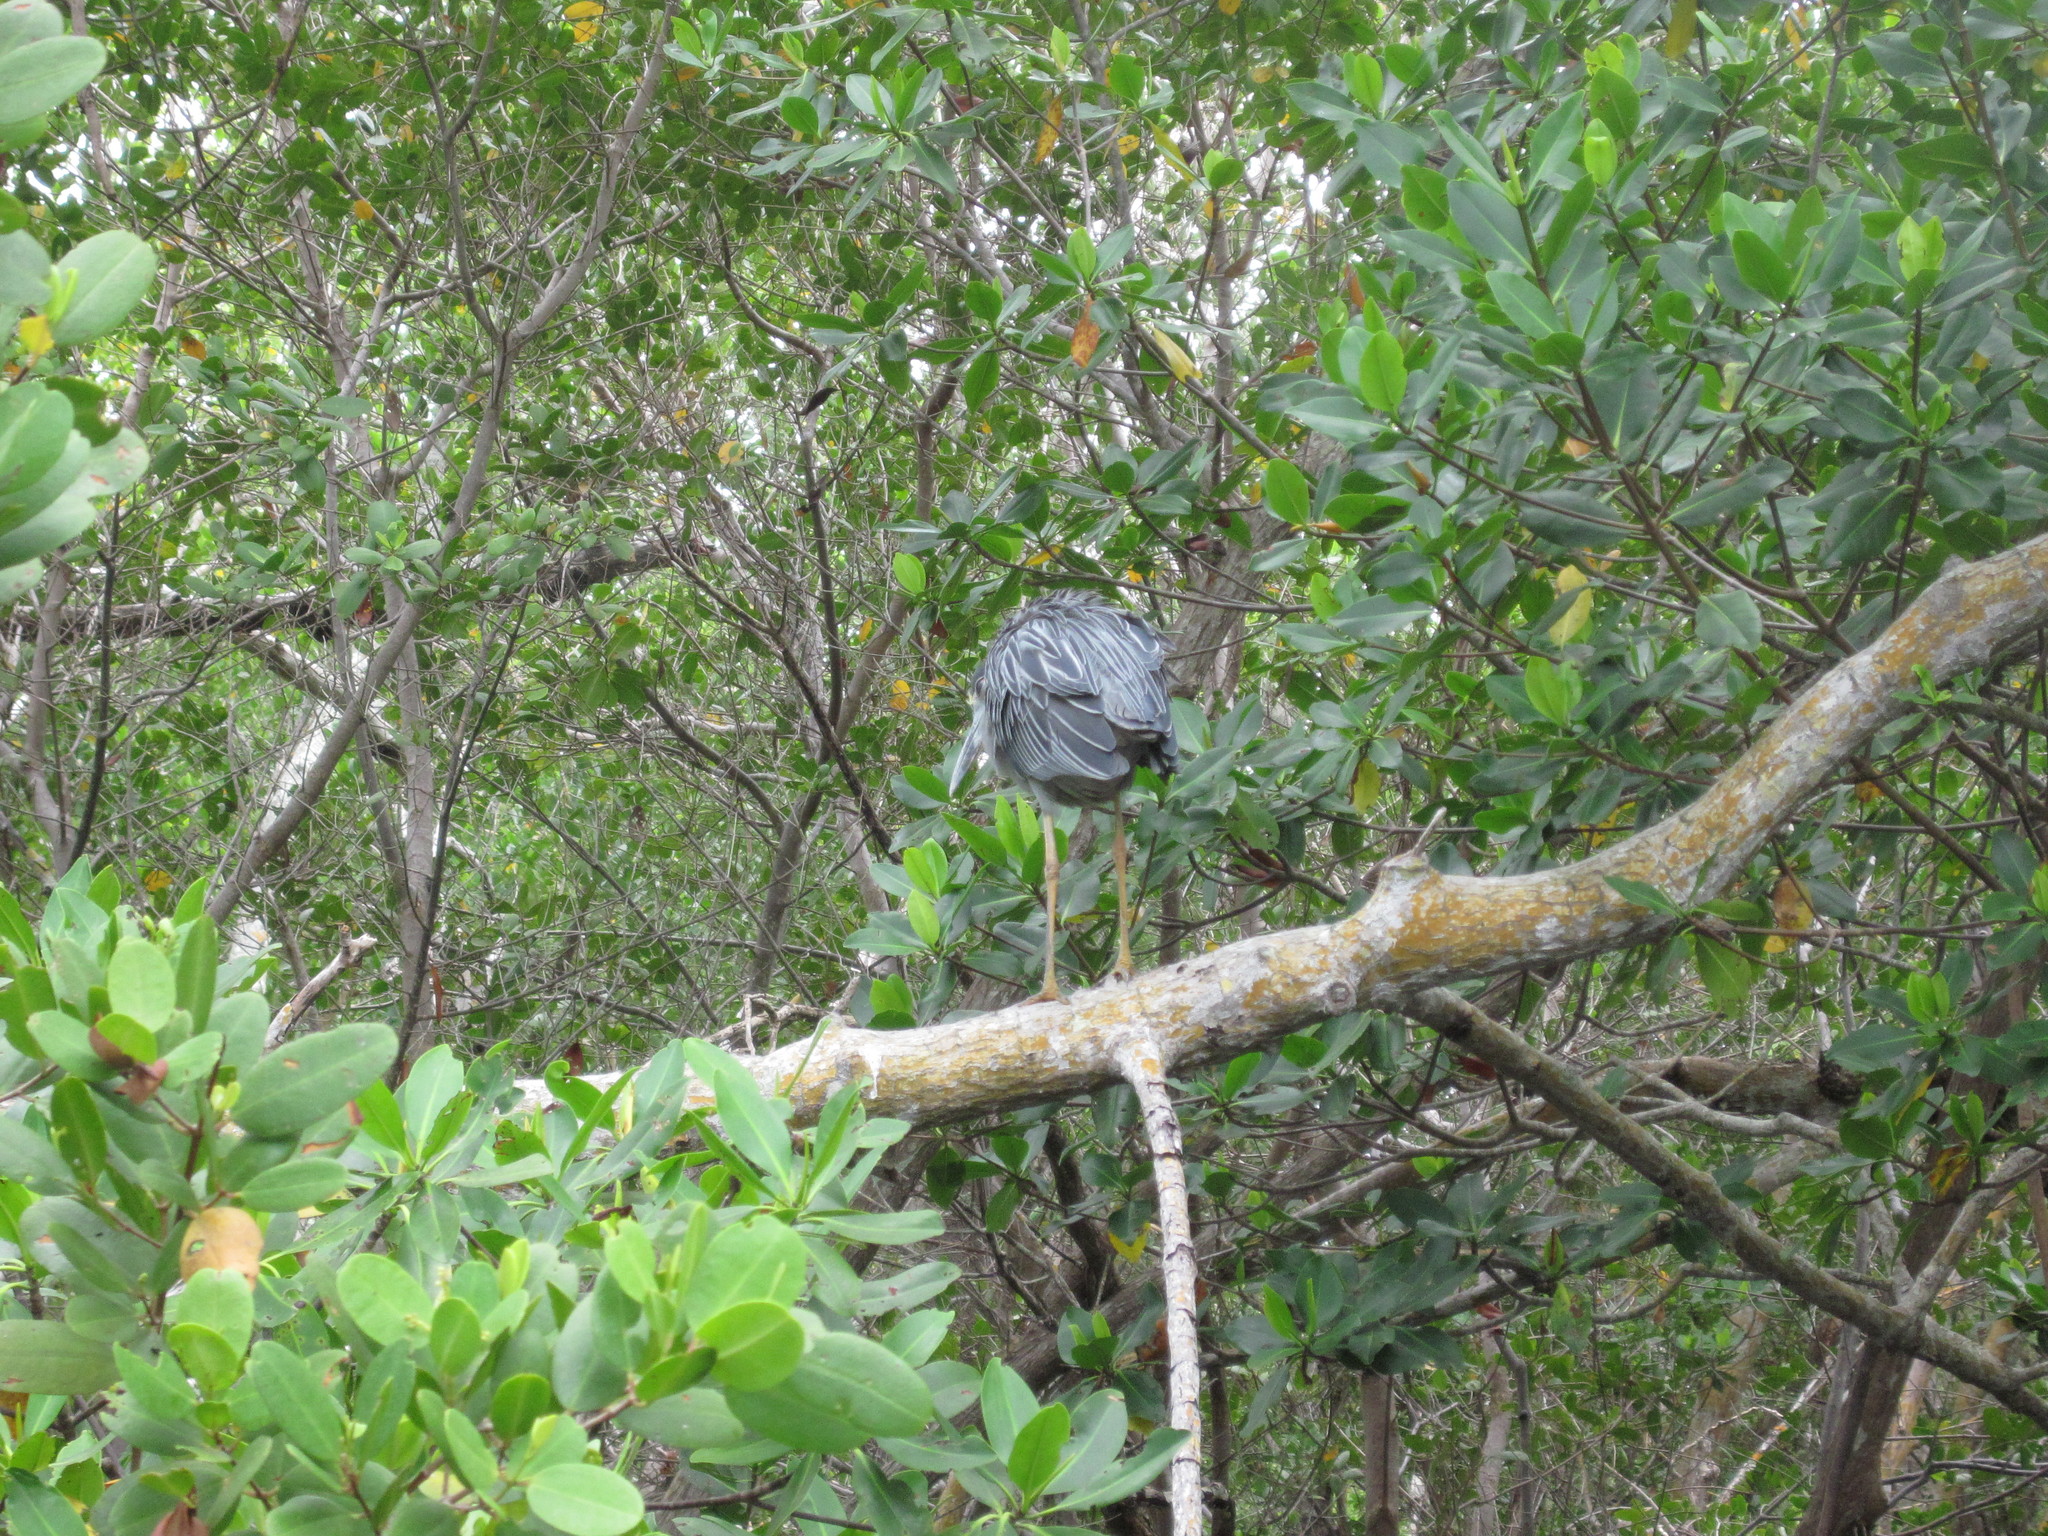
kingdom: Animalia
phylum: Chordata
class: Aves
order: Pelecaniformes
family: Ardeidae
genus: Nyctanassa
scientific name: Nyctanassa violacea
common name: Yellow-crowned night heron
